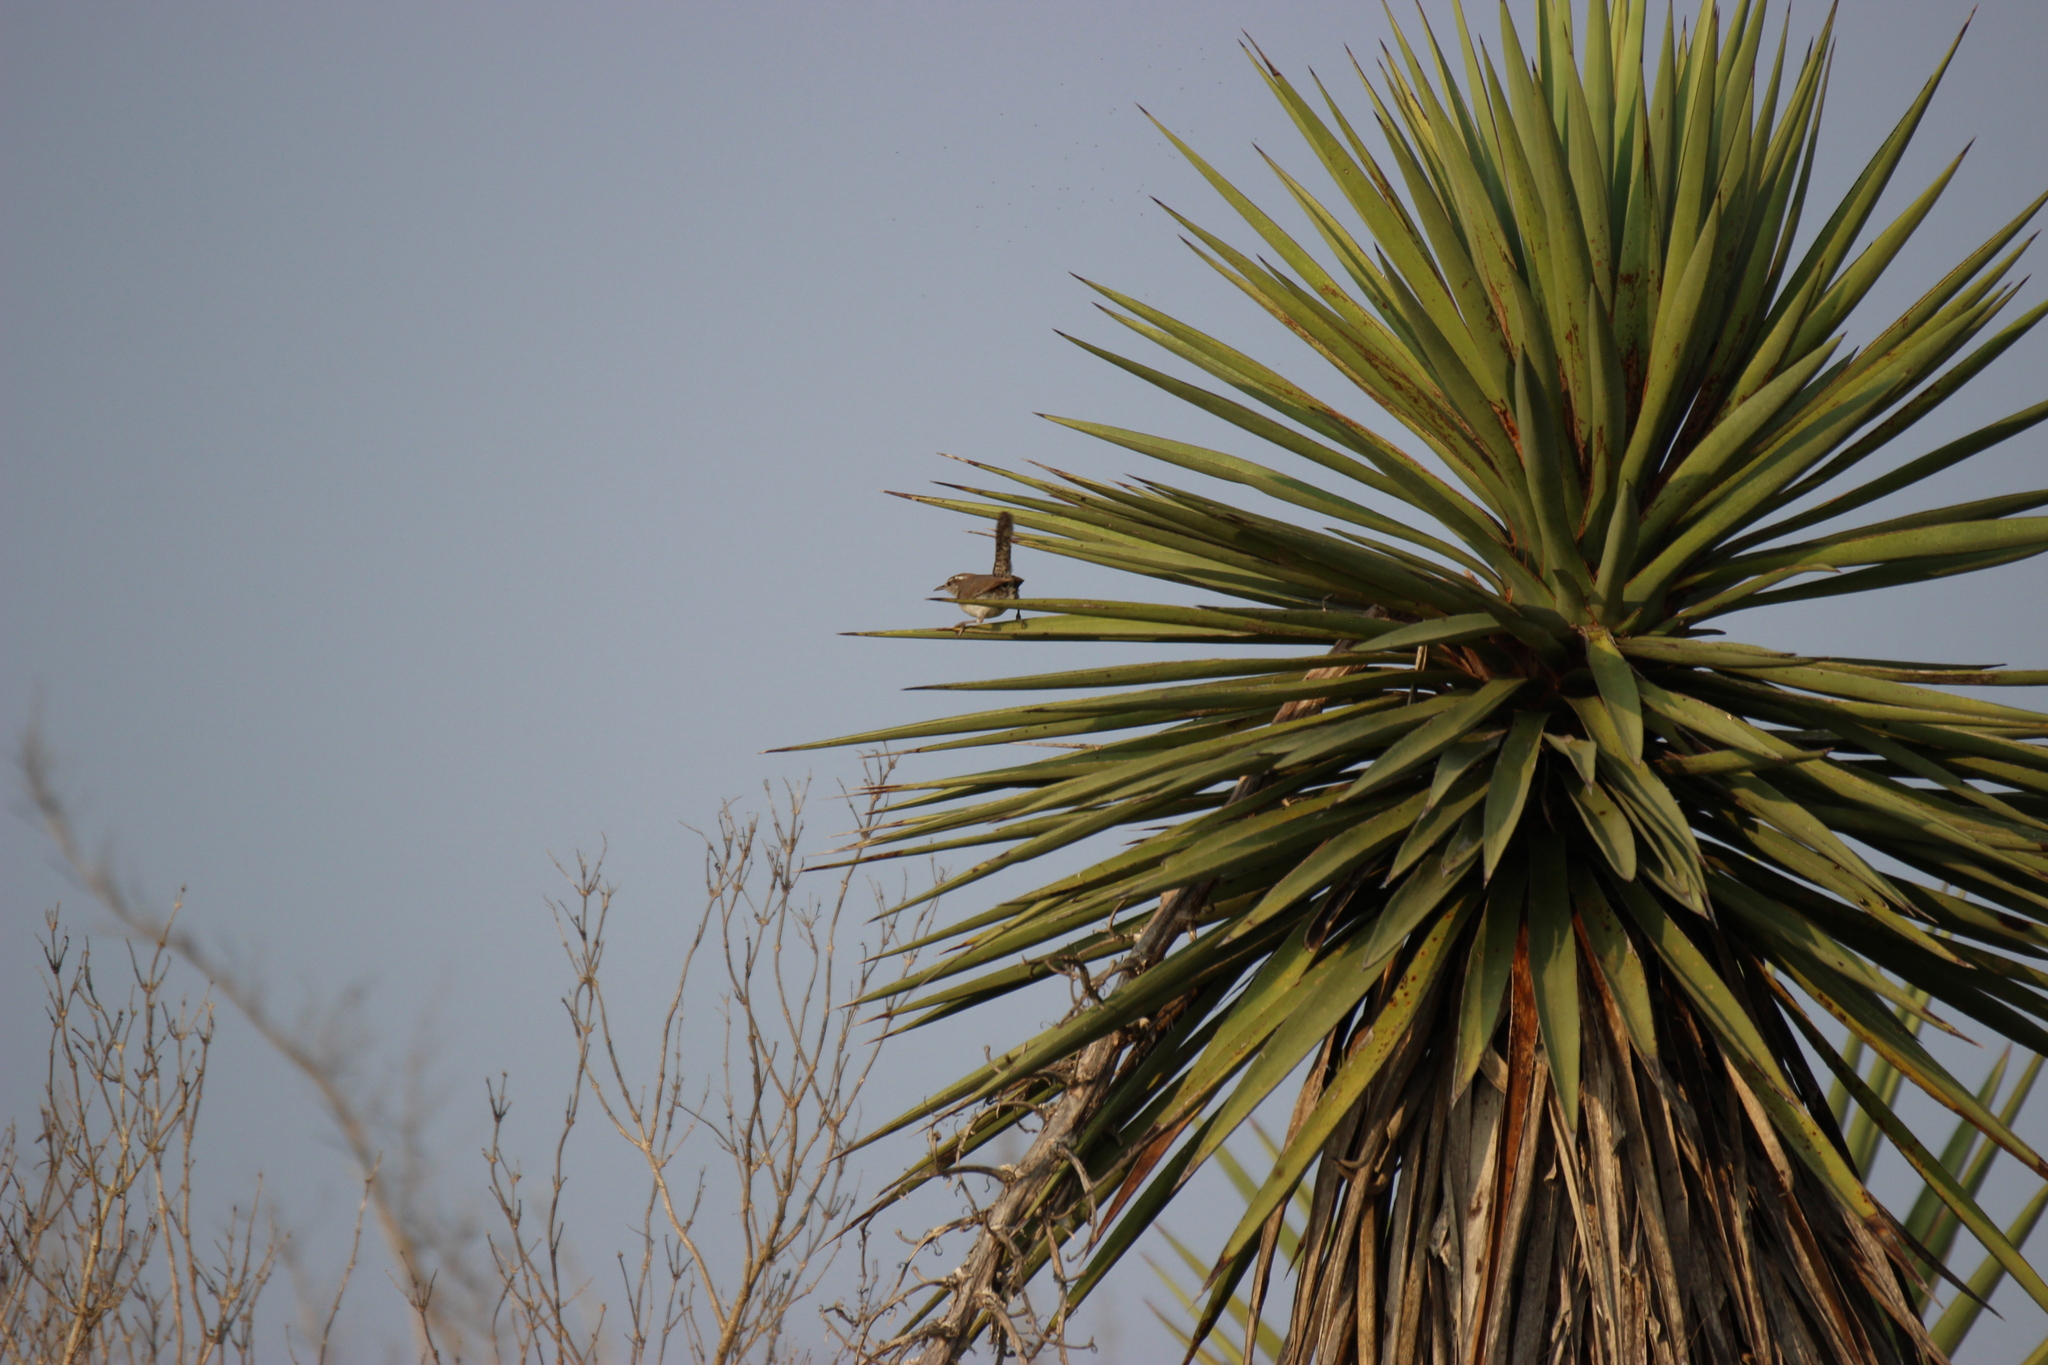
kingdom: Animalia
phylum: Chordata
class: Aves
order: Passeriformes
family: Troglodytidae
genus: Thryomanes
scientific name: Thryomanes bewickii
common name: Bewick's wren
